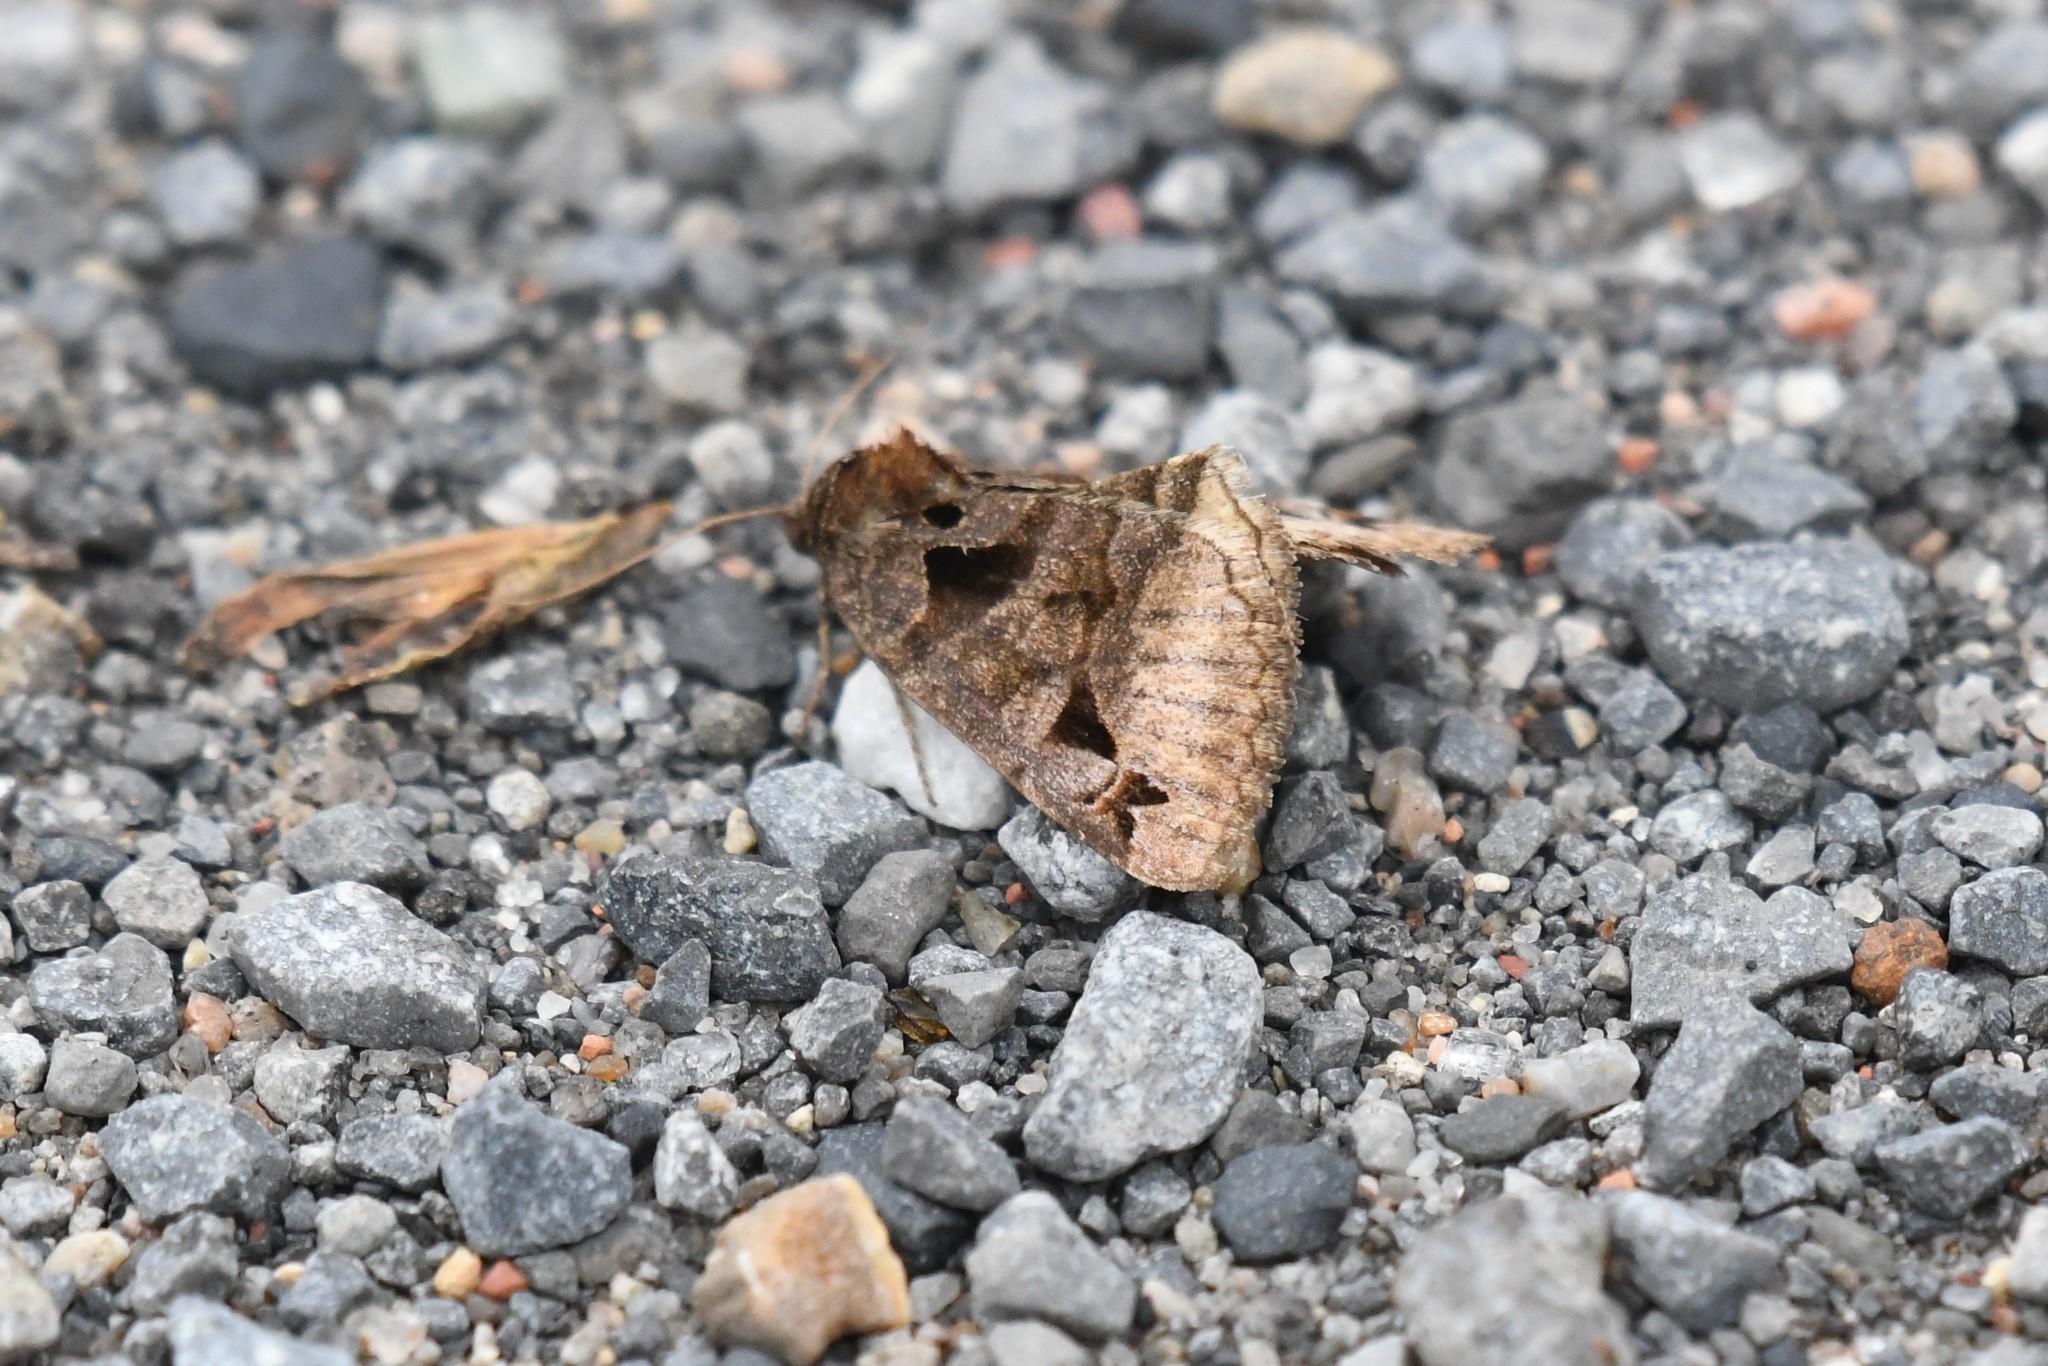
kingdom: Animalia
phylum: Arthropoda
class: Insecta
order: Lepidoptera
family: Erebidae
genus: Euclidia
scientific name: Euclidia cuspidea
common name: Toothed somberwing
